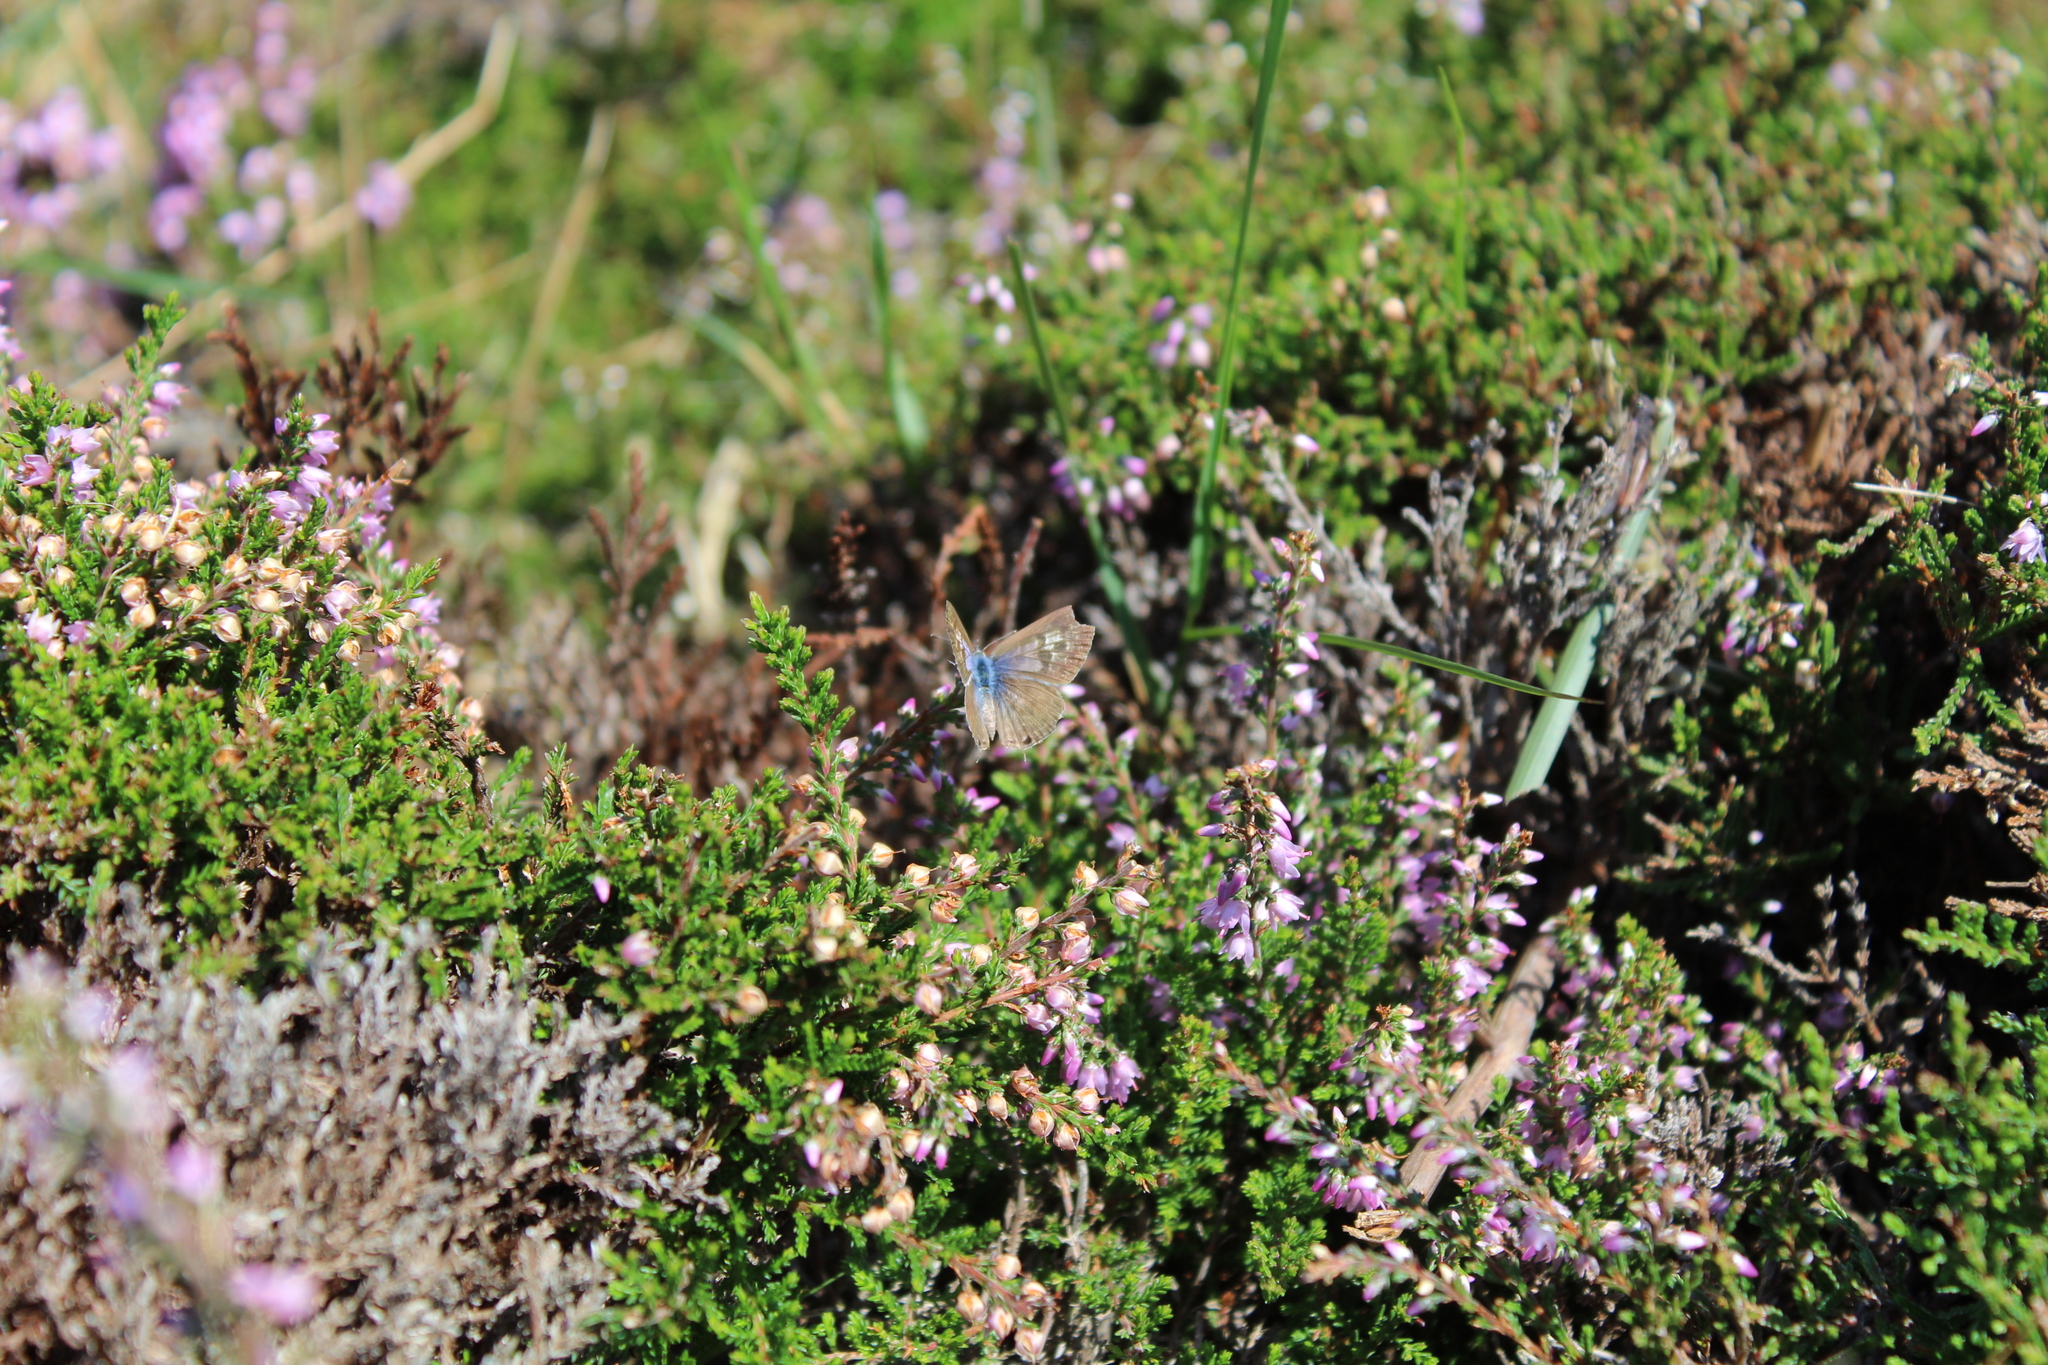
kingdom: Animalia
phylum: Arthropoda
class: Insecta
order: Lepidoptera
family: Lycaenidae
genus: Leptotes
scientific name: Leptotes pirithous
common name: Lang's short-tailed blue
